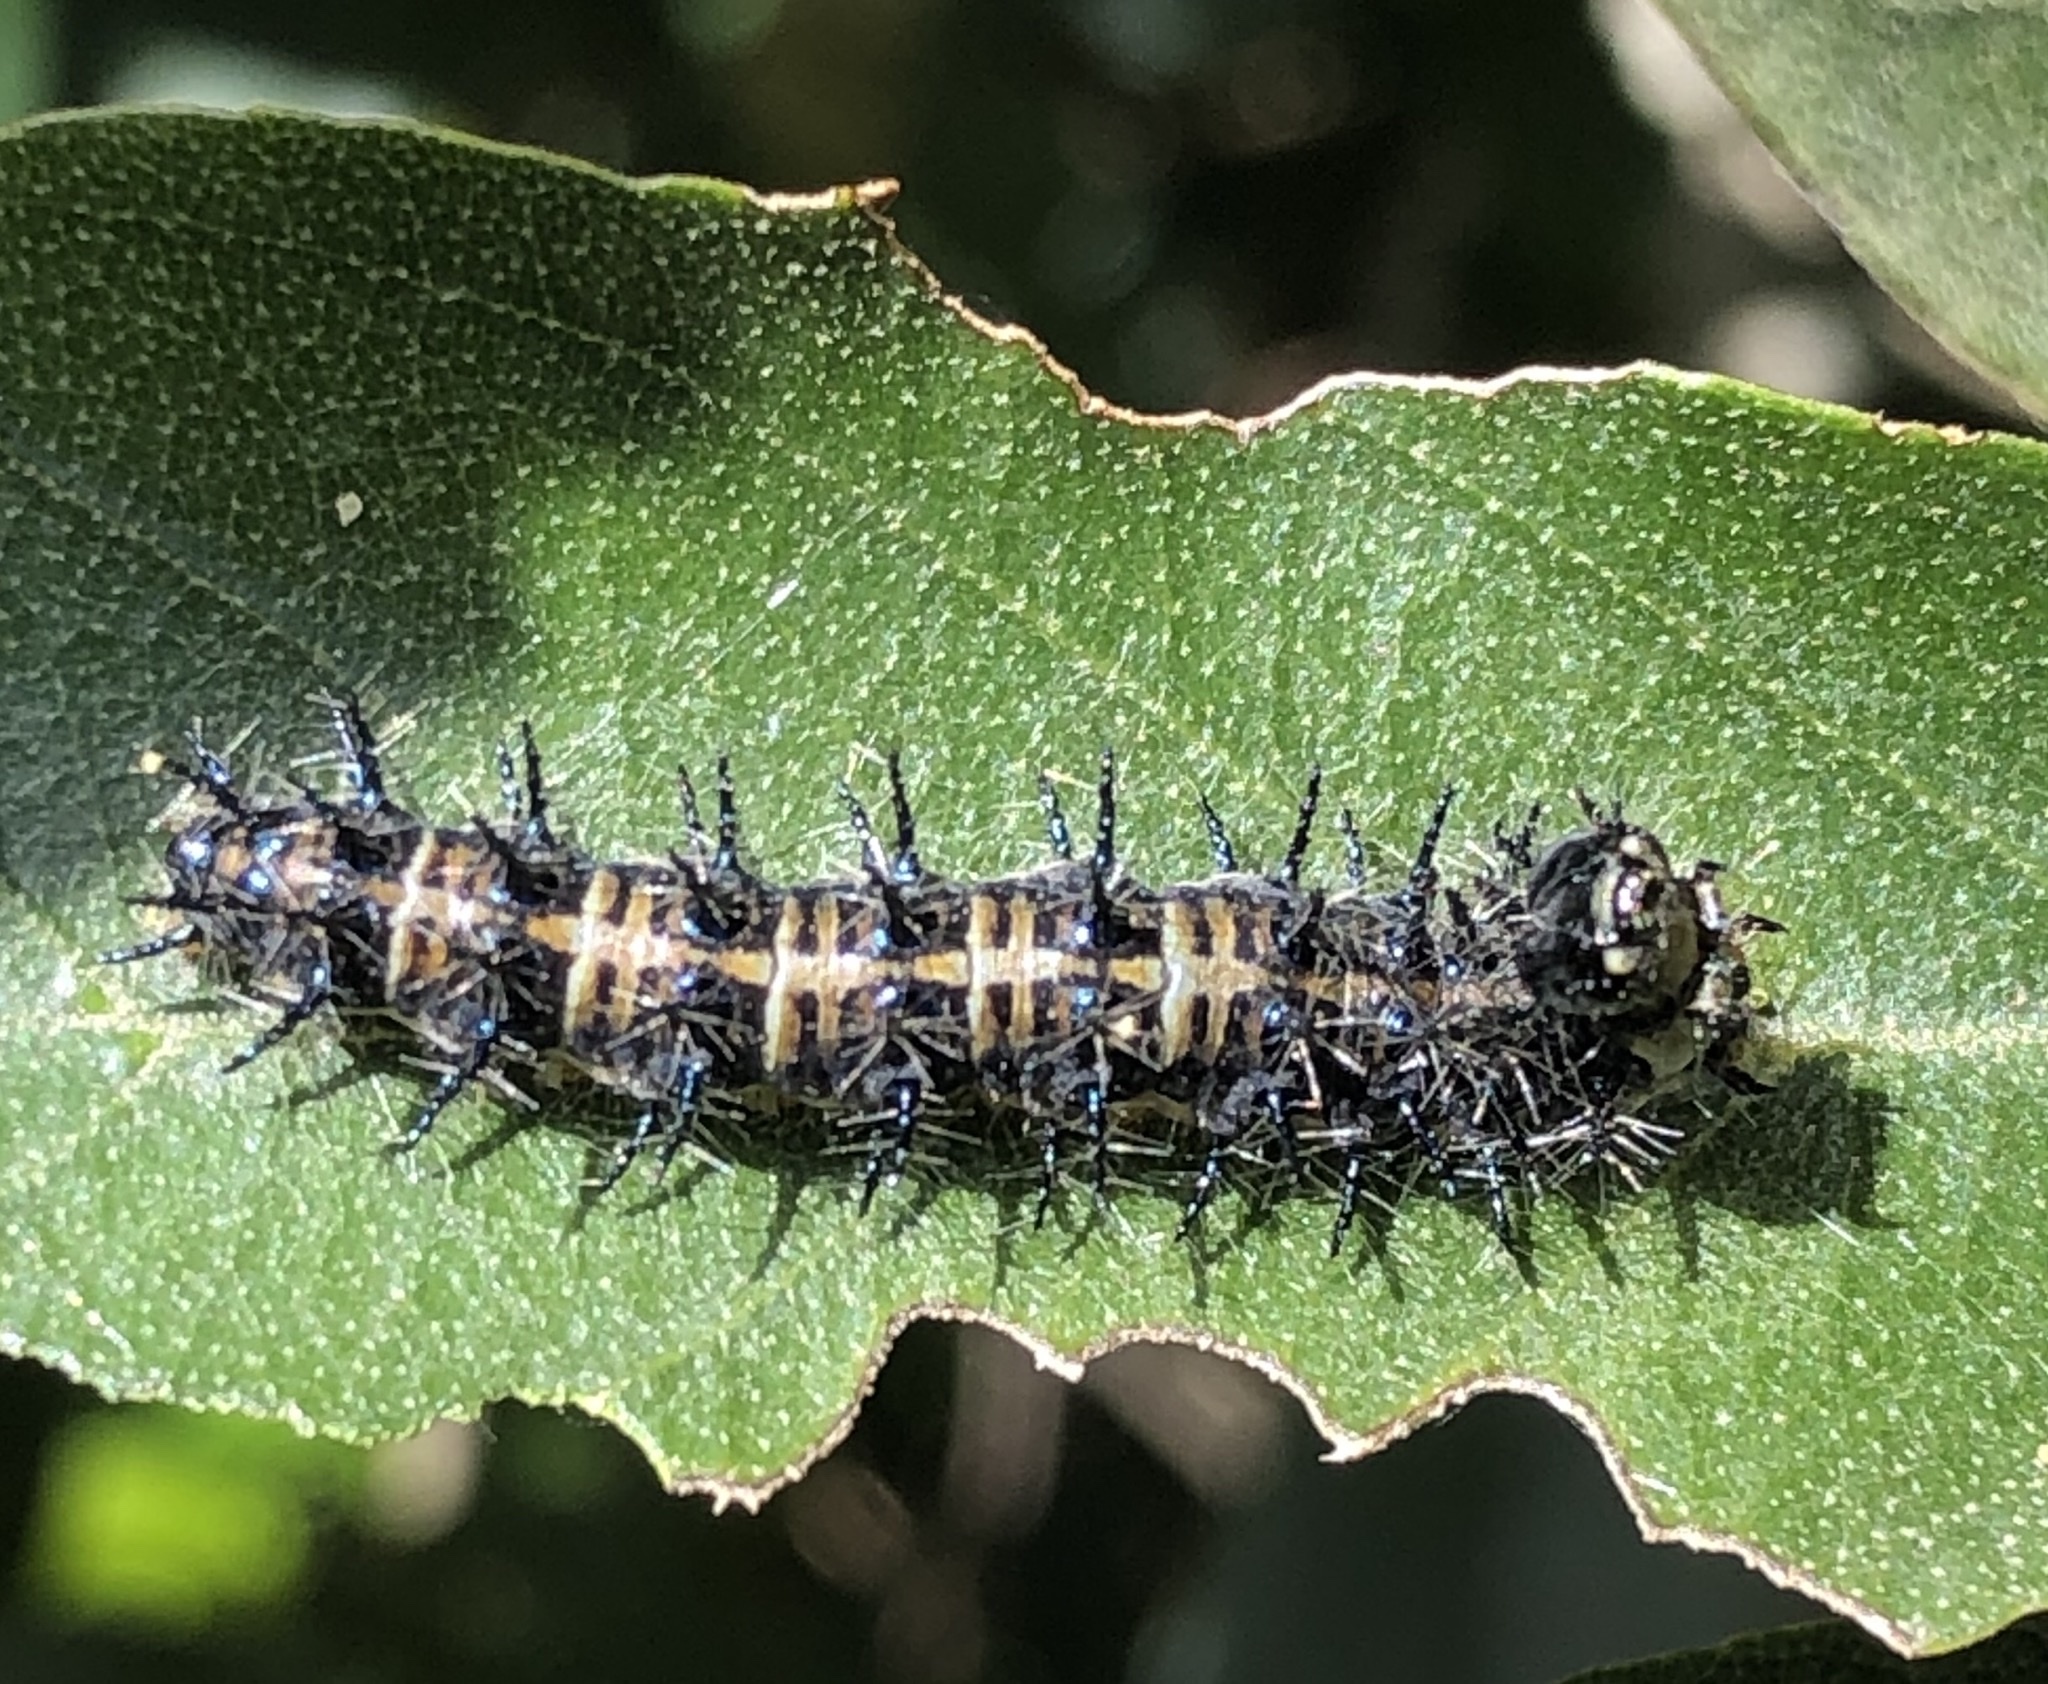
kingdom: Animalia
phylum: Arthropoda
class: Insecta
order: Lepidoptera
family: Nymphalidae
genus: Acraea
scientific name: Acraea horta
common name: Garden acraea
